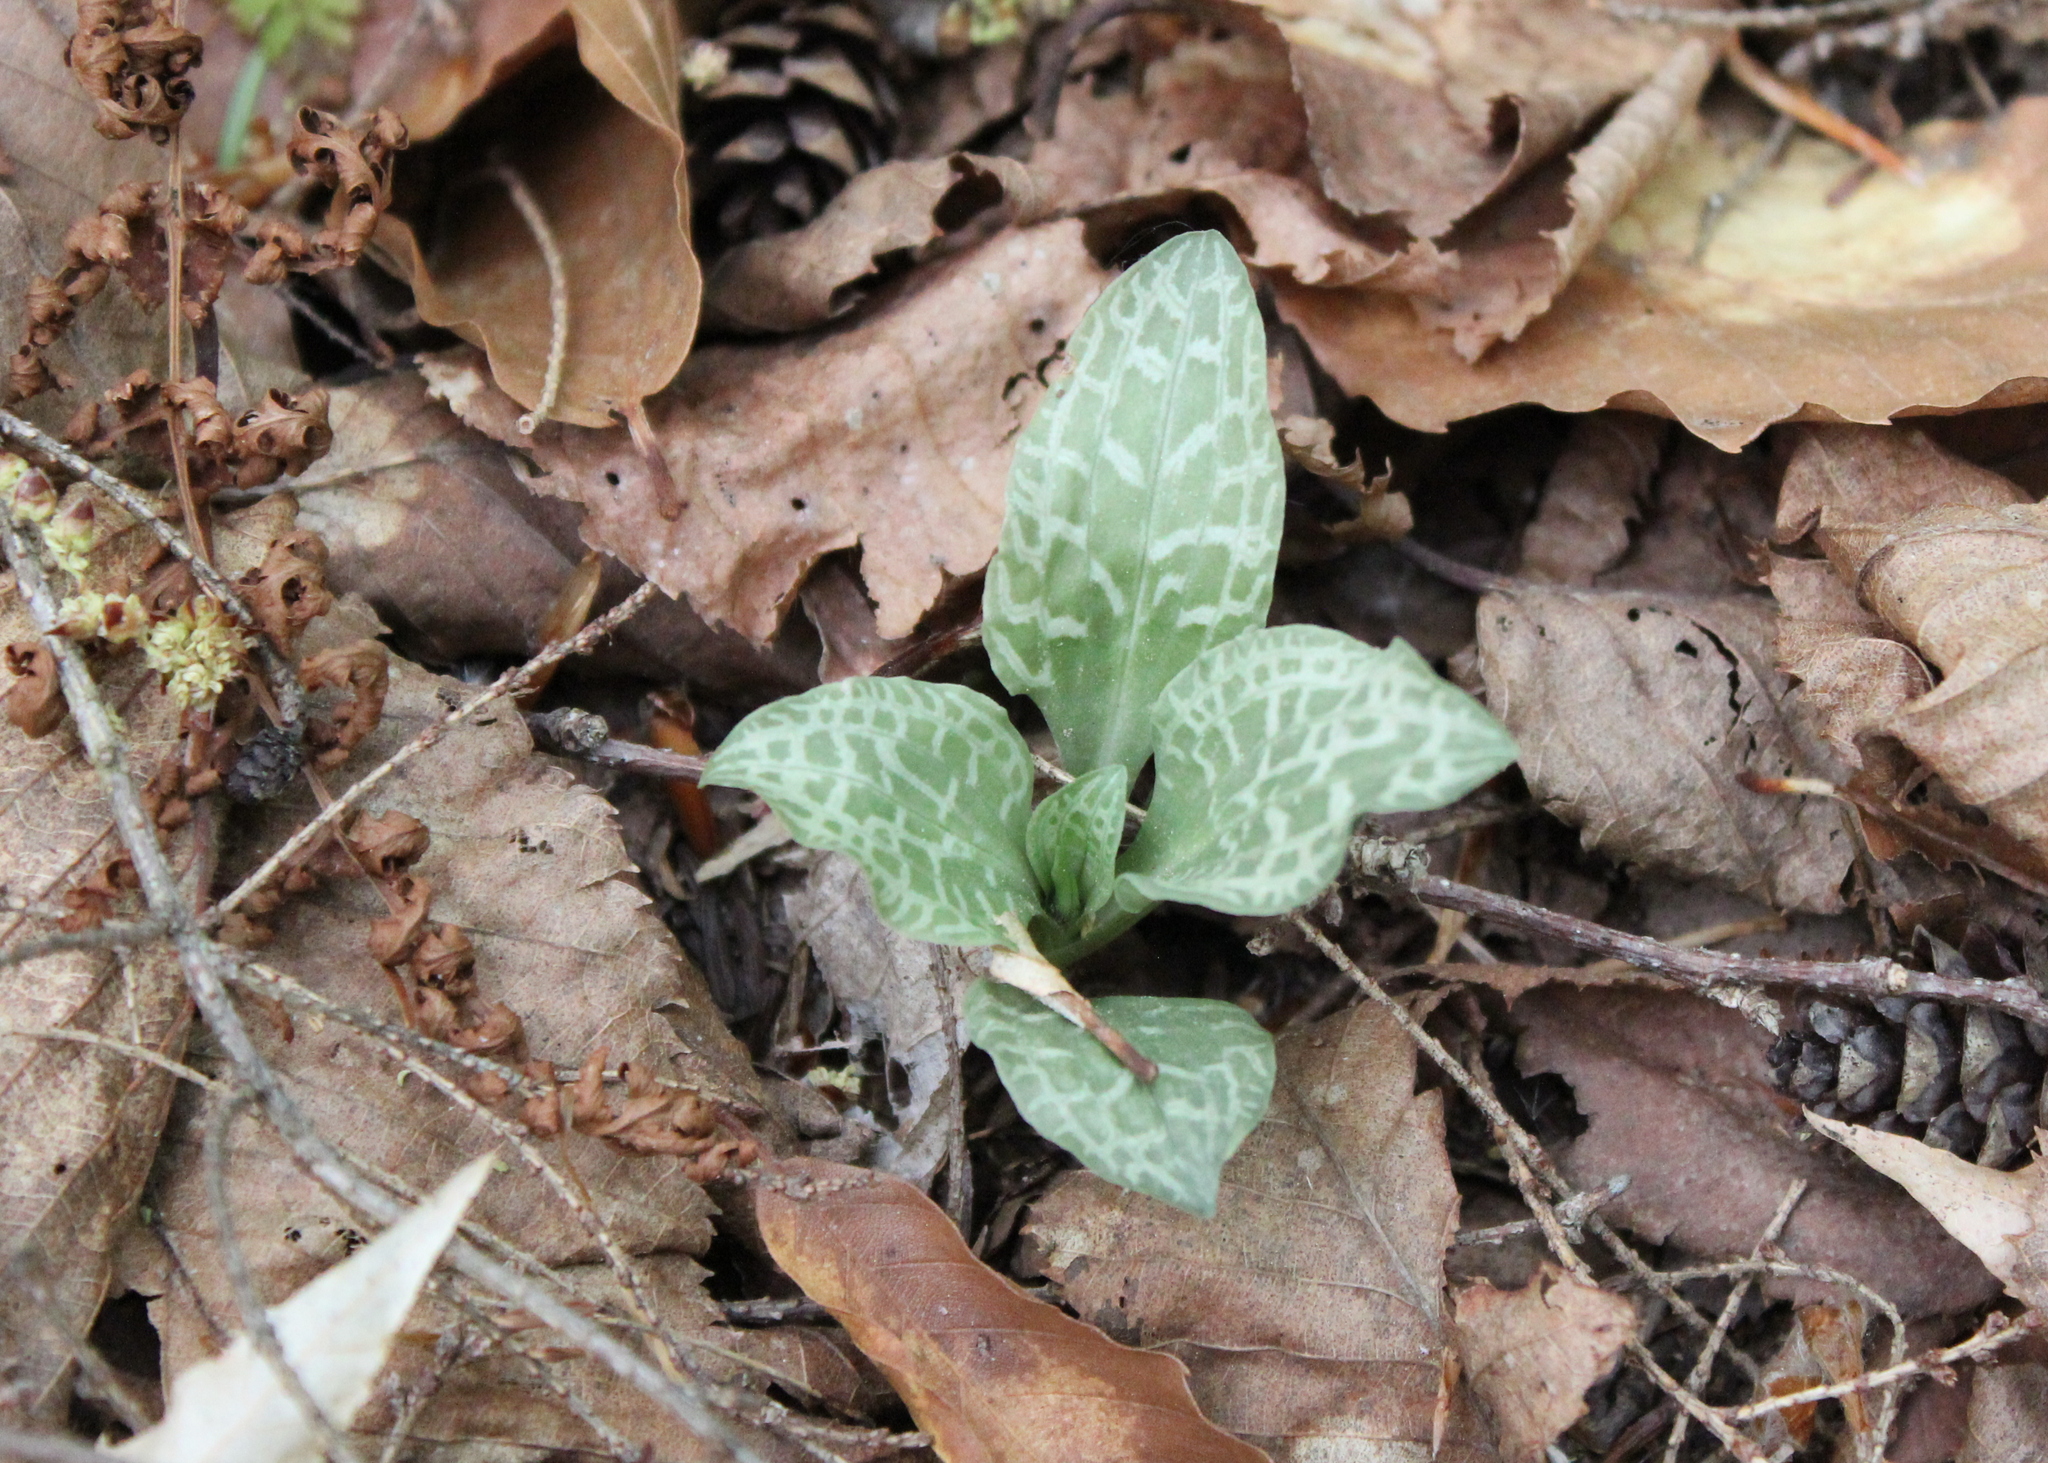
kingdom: Plantae
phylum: Tracheophyta
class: Liliopsida
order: Asparagales
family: Orchidaceae
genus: Goodyera
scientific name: Goodyera tesselata
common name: Checkered rattlesnake-plantain
